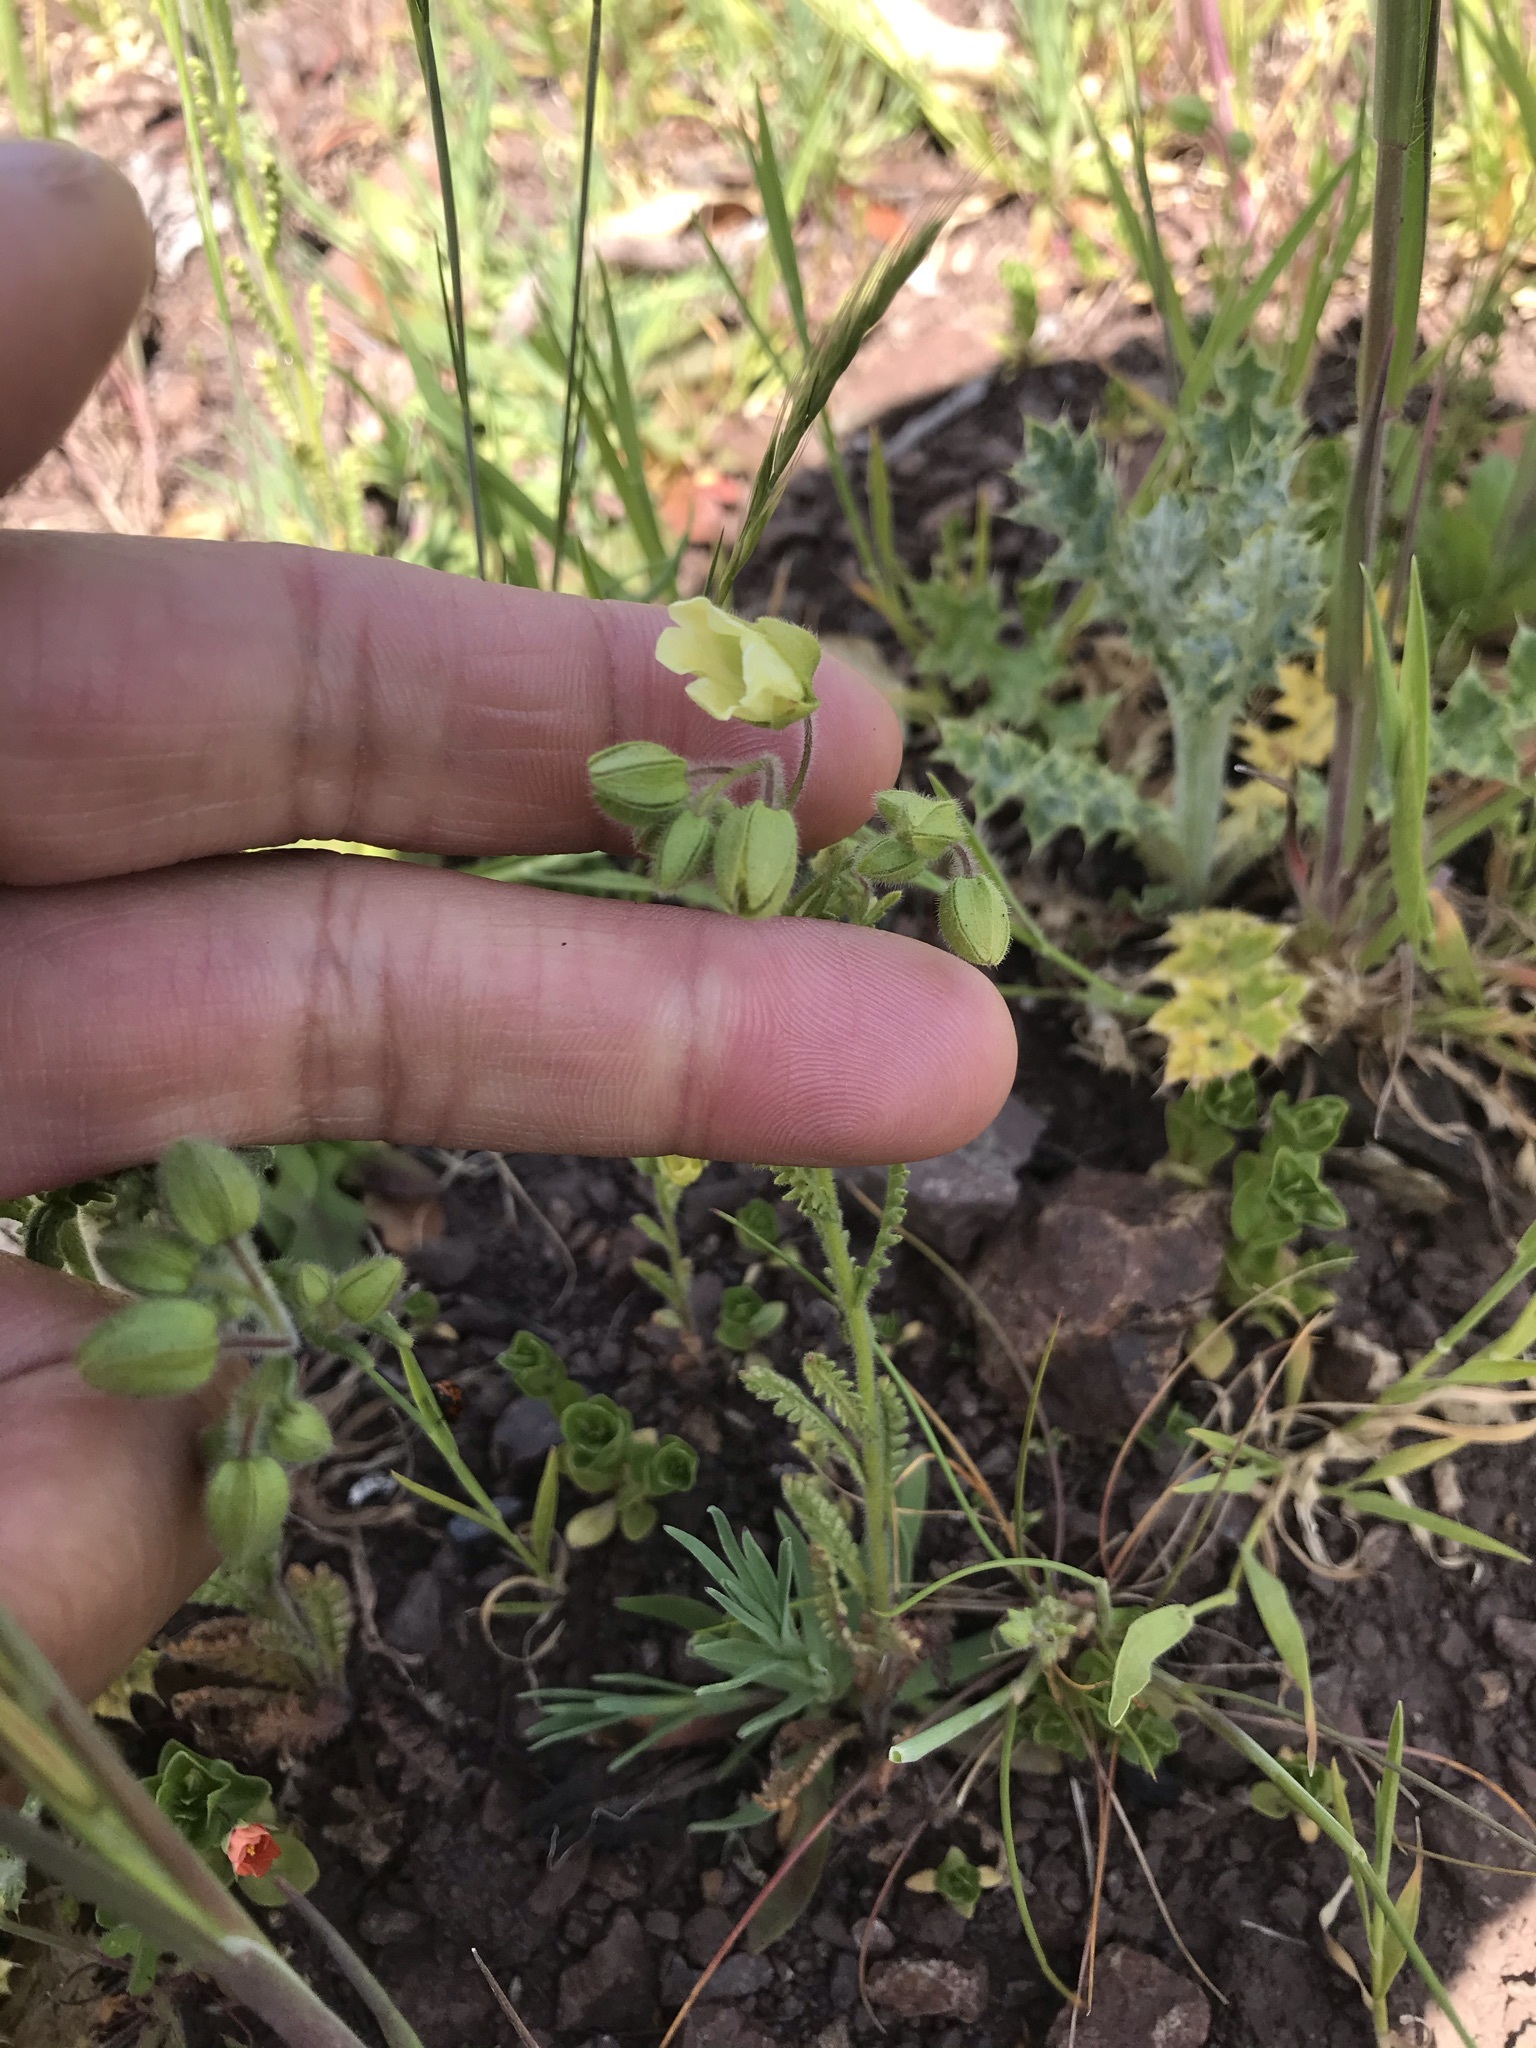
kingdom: Plantae
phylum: Tracheophyta
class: Magnoliopsida
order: Boraginales
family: Hydrophyllaceae
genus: Emmenanthe
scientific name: Emmenanthe penduliflora
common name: Whispering-bells
